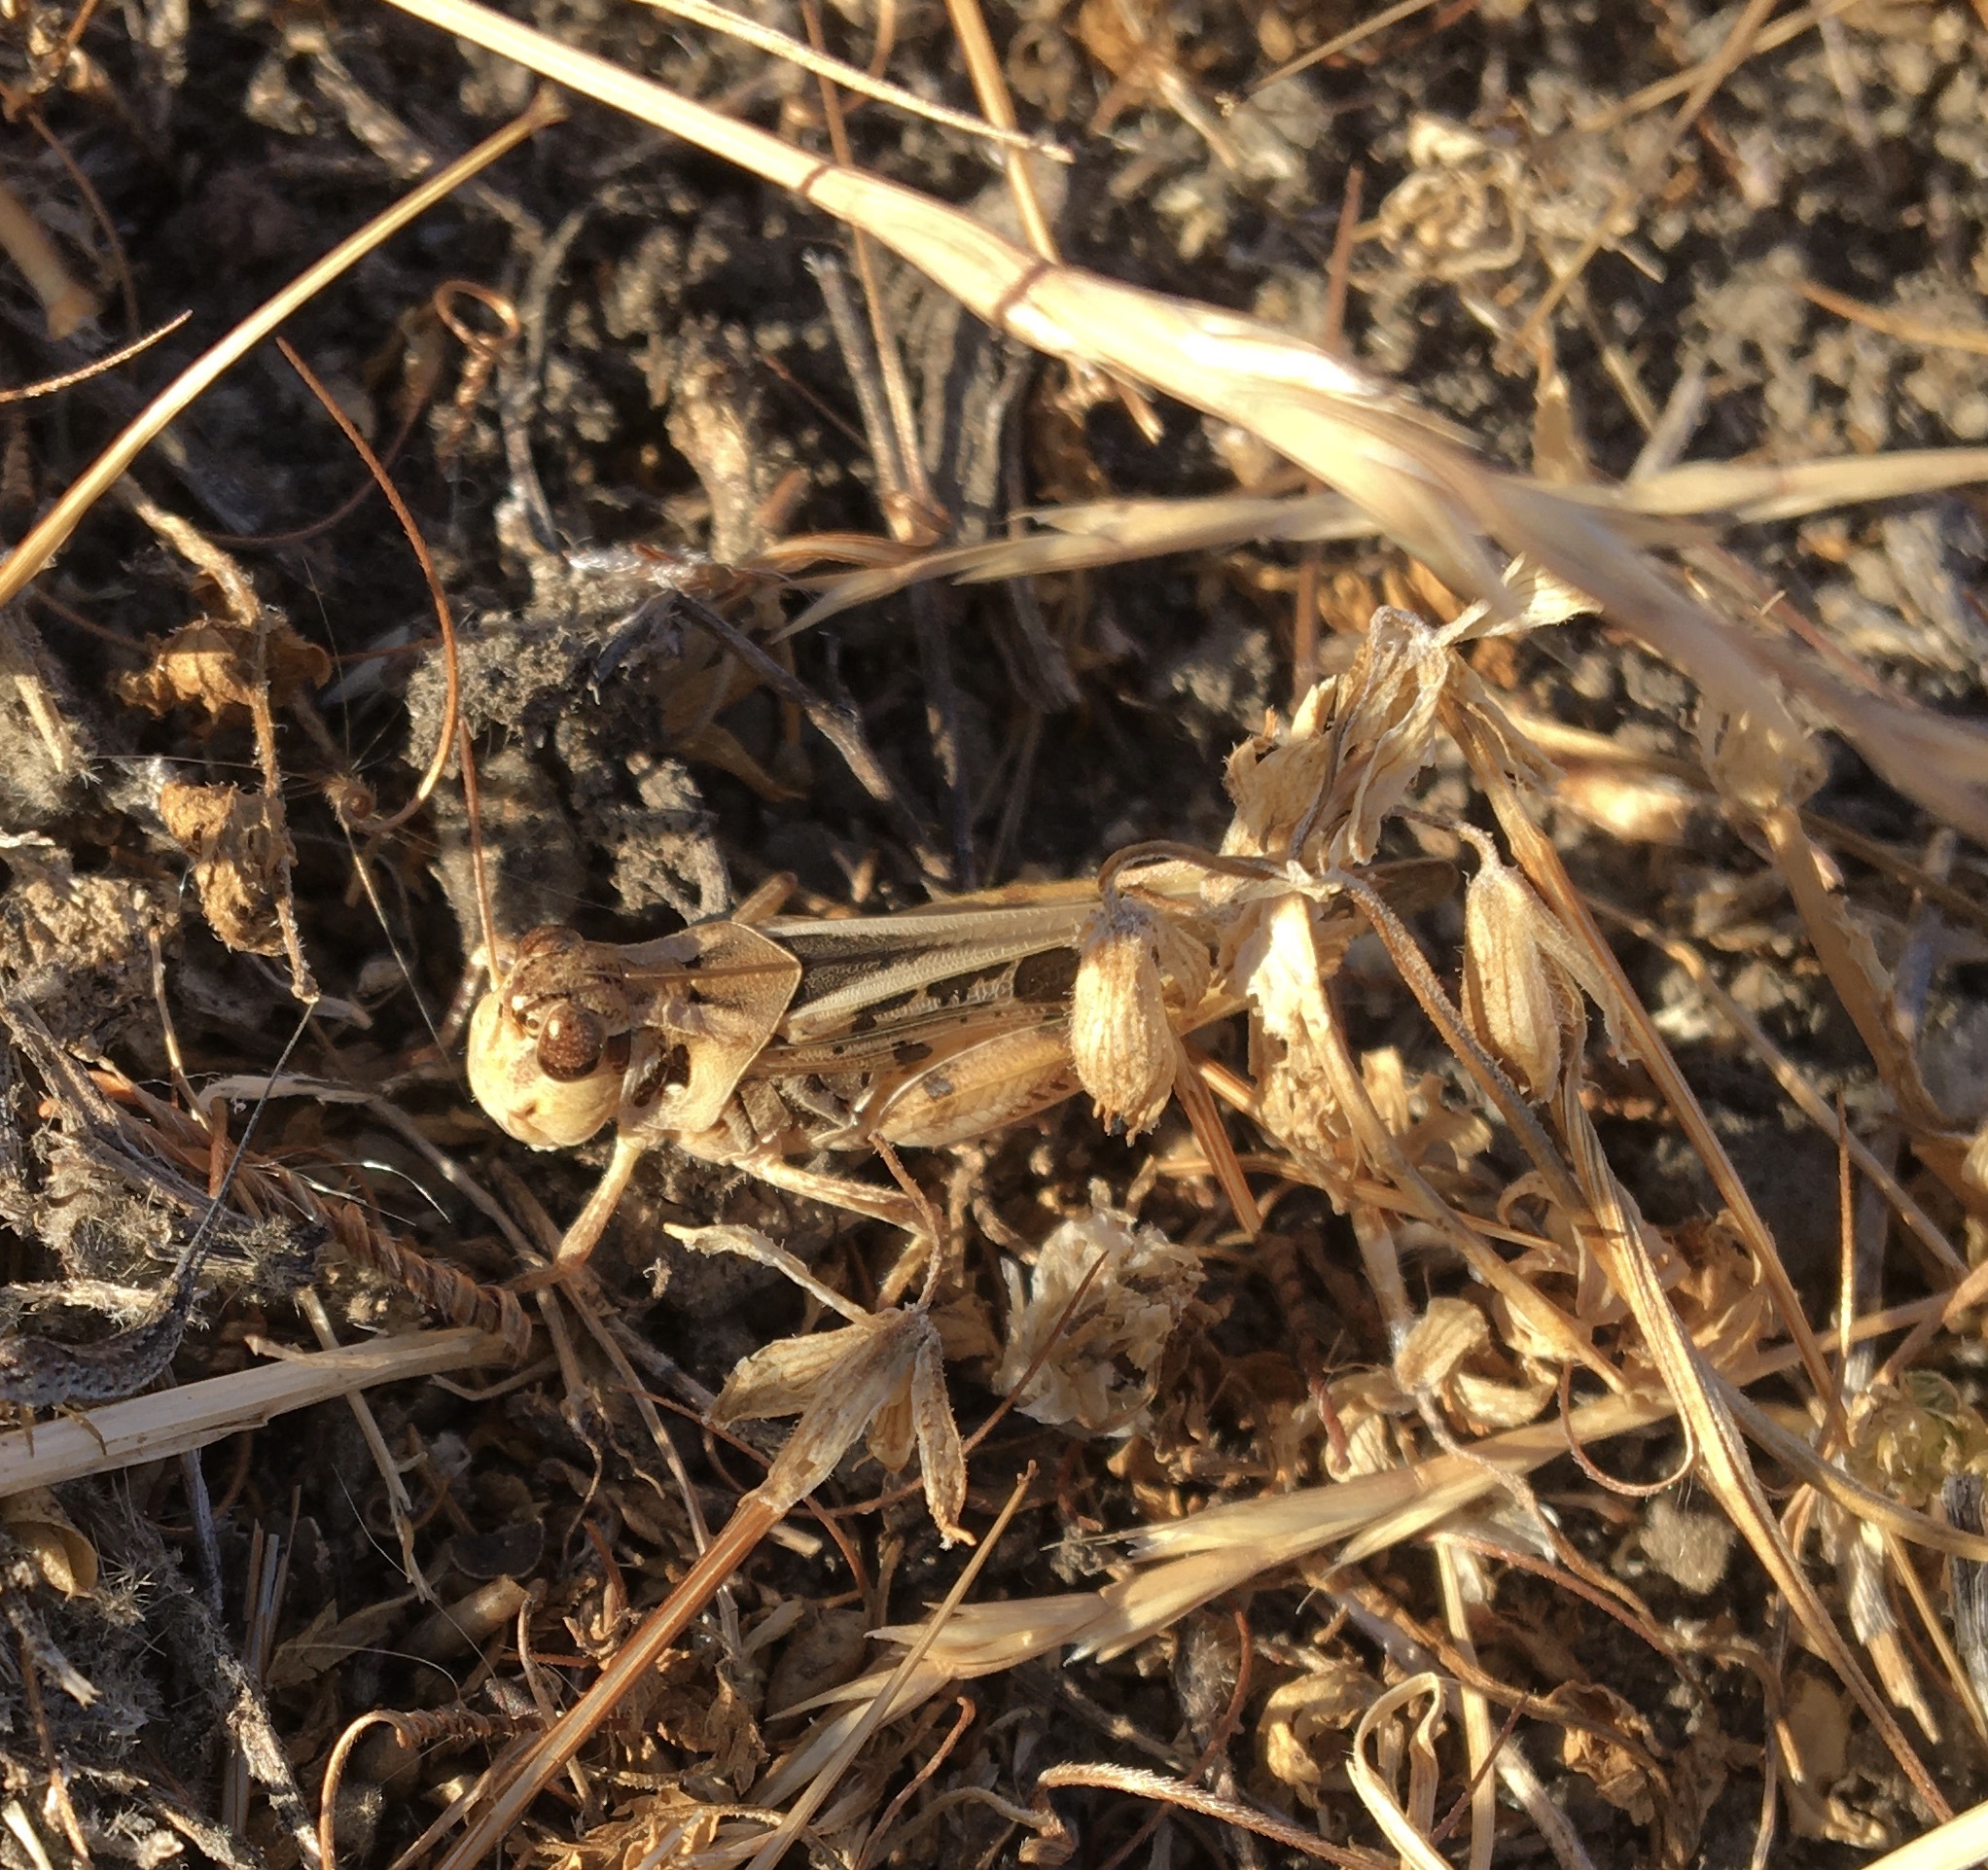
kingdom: Animalia
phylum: Arthropoda
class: Insecta
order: Orthoptera
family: Acrididae
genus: Camnula
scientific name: Camnula pellucida
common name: Clear-winged grasshopper
